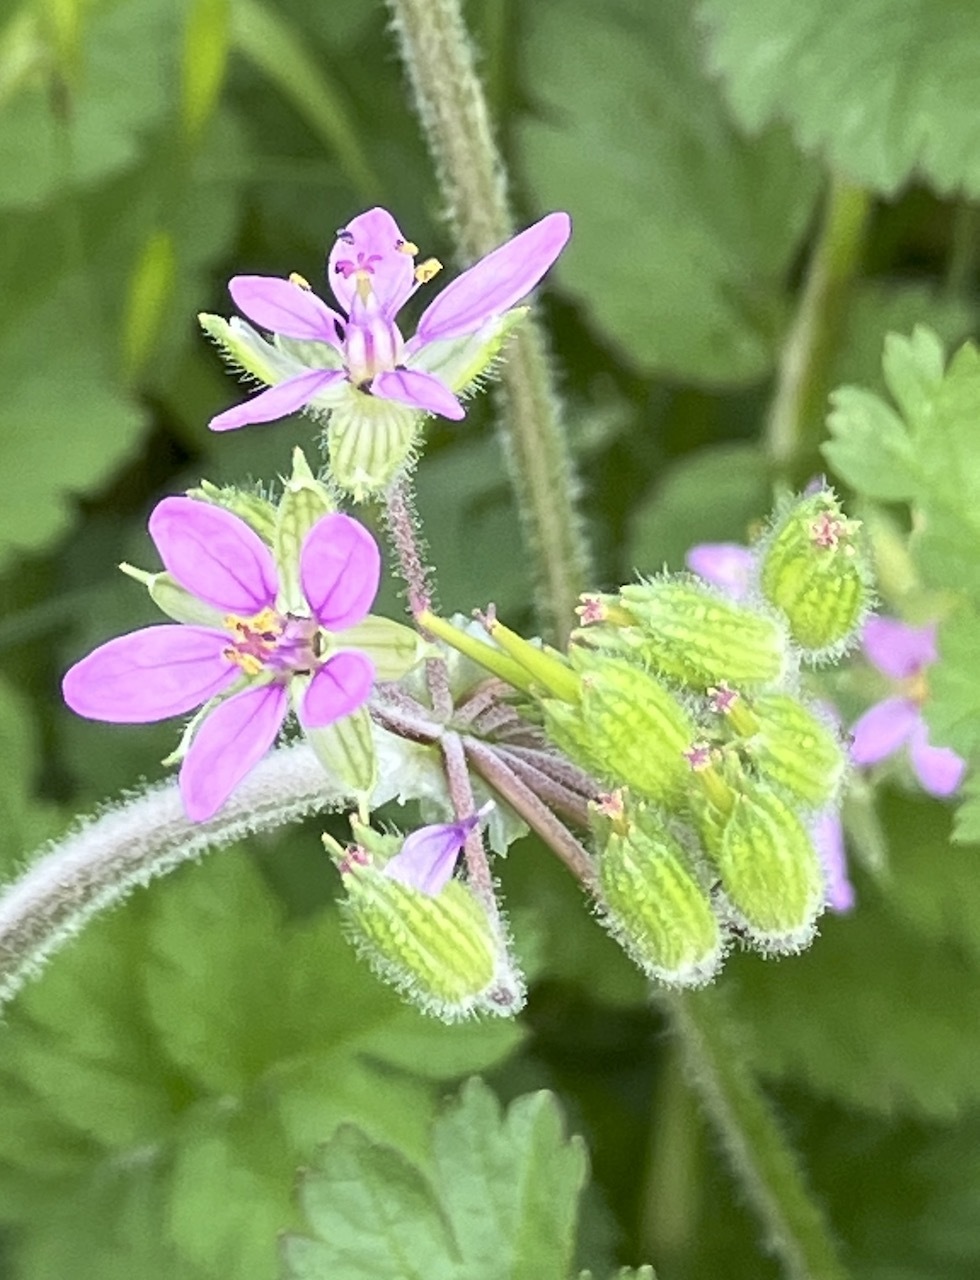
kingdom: Plantae
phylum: Tracheophyta
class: Magnoliopsida
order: Geraniales
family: Geraniaceae
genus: Erodium
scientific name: Erodium moschatum
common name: Musk stork's-bill
